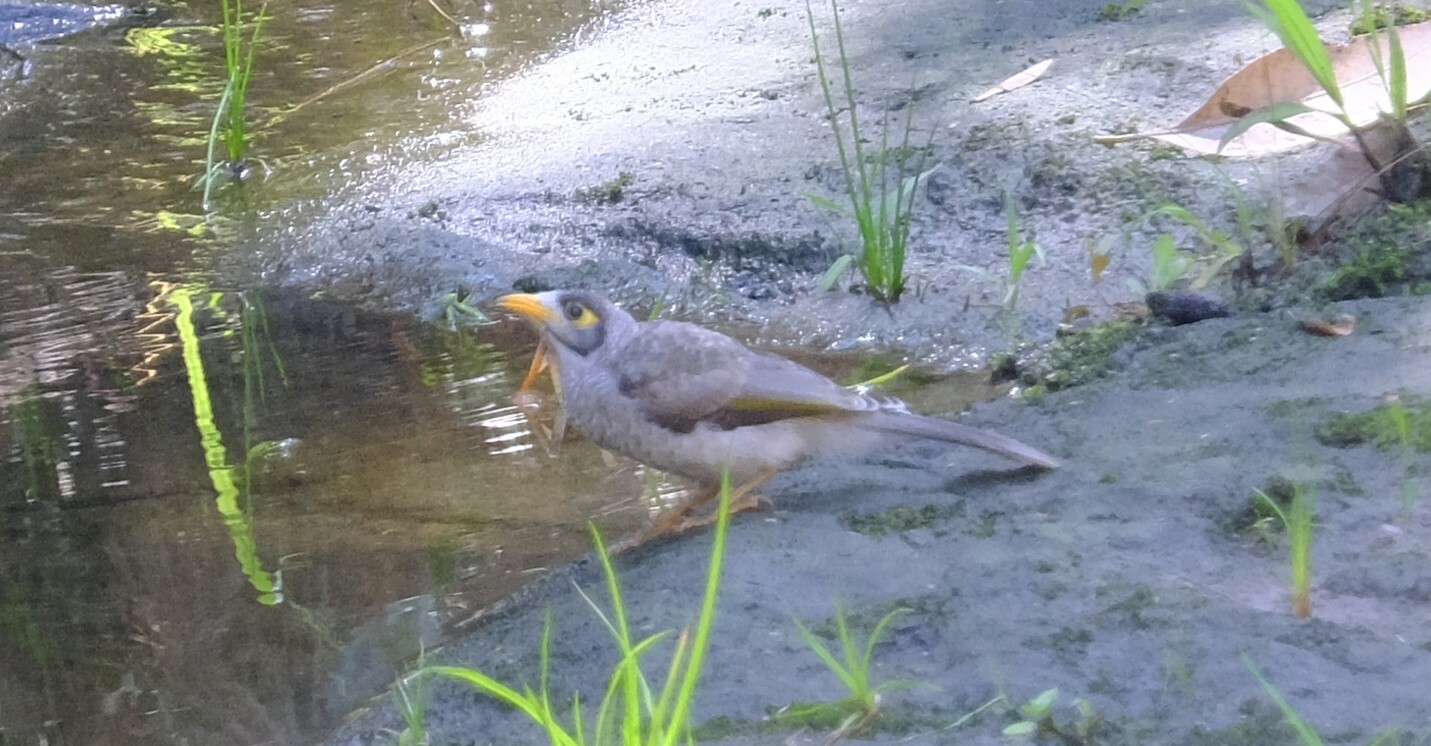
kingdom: Animalia
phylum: Chordata
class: Aves
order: Passeriformes
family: Meliphagidae
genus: Manorina
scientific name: Manorina melanocephala
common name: Noisy miner
